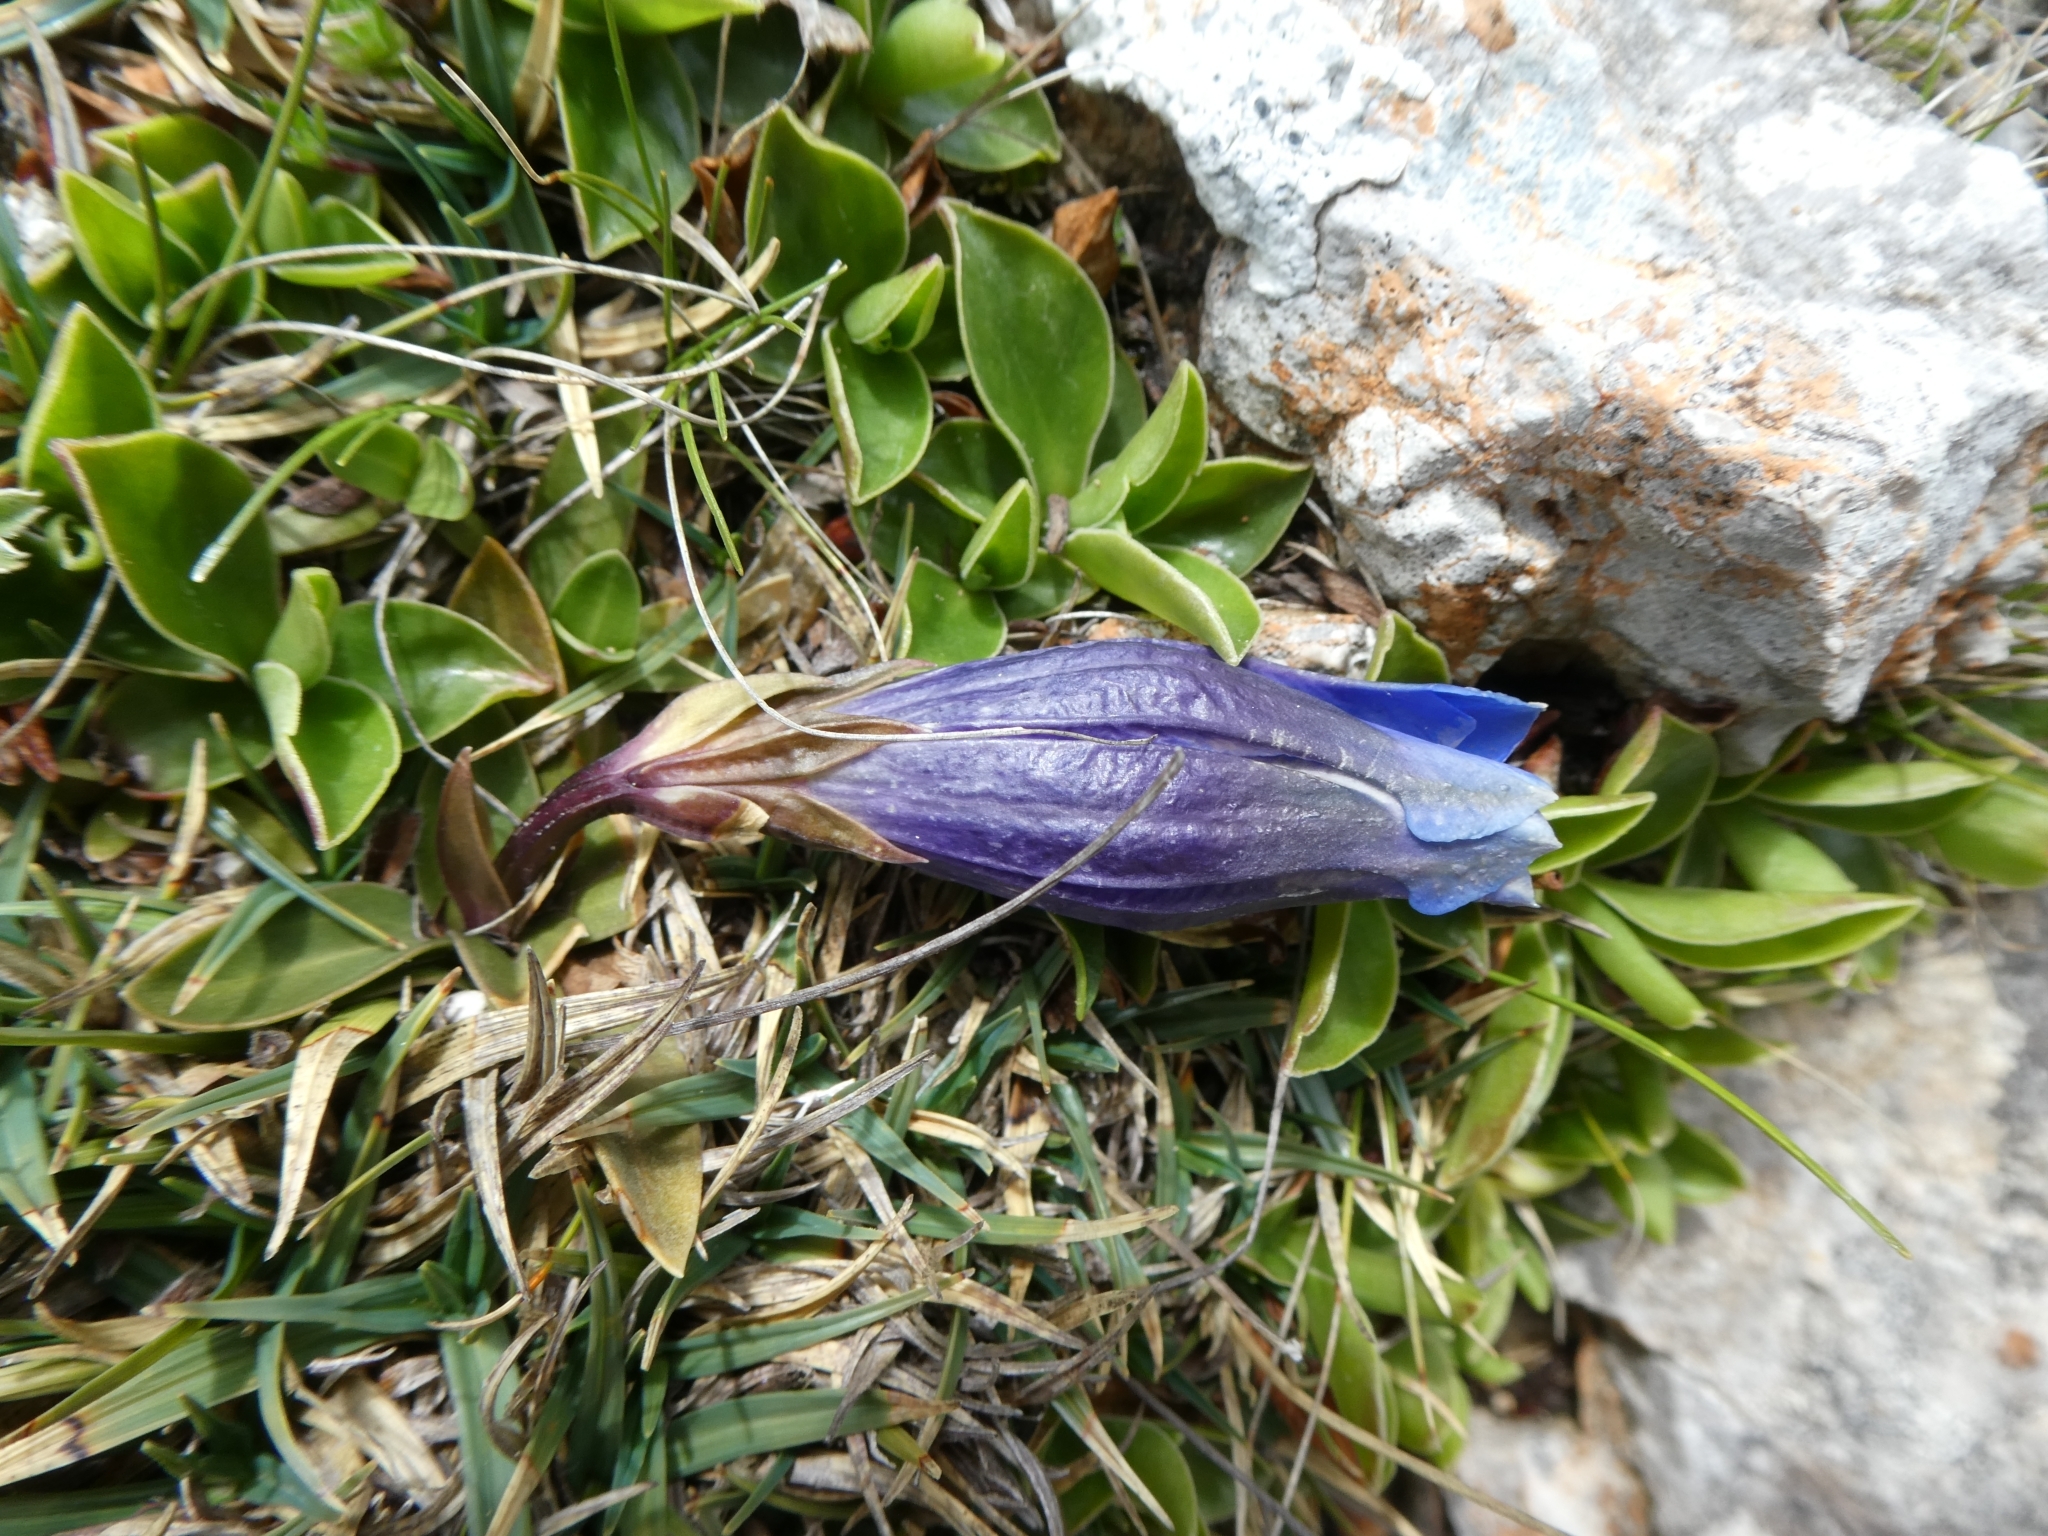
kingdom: Plantae
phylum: Tracheophyta
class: Magnoliopsida
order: Gentianales
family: Gentianaceae
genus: Gentiana
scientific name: Gentiana clusii
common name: Trumpet gentian
